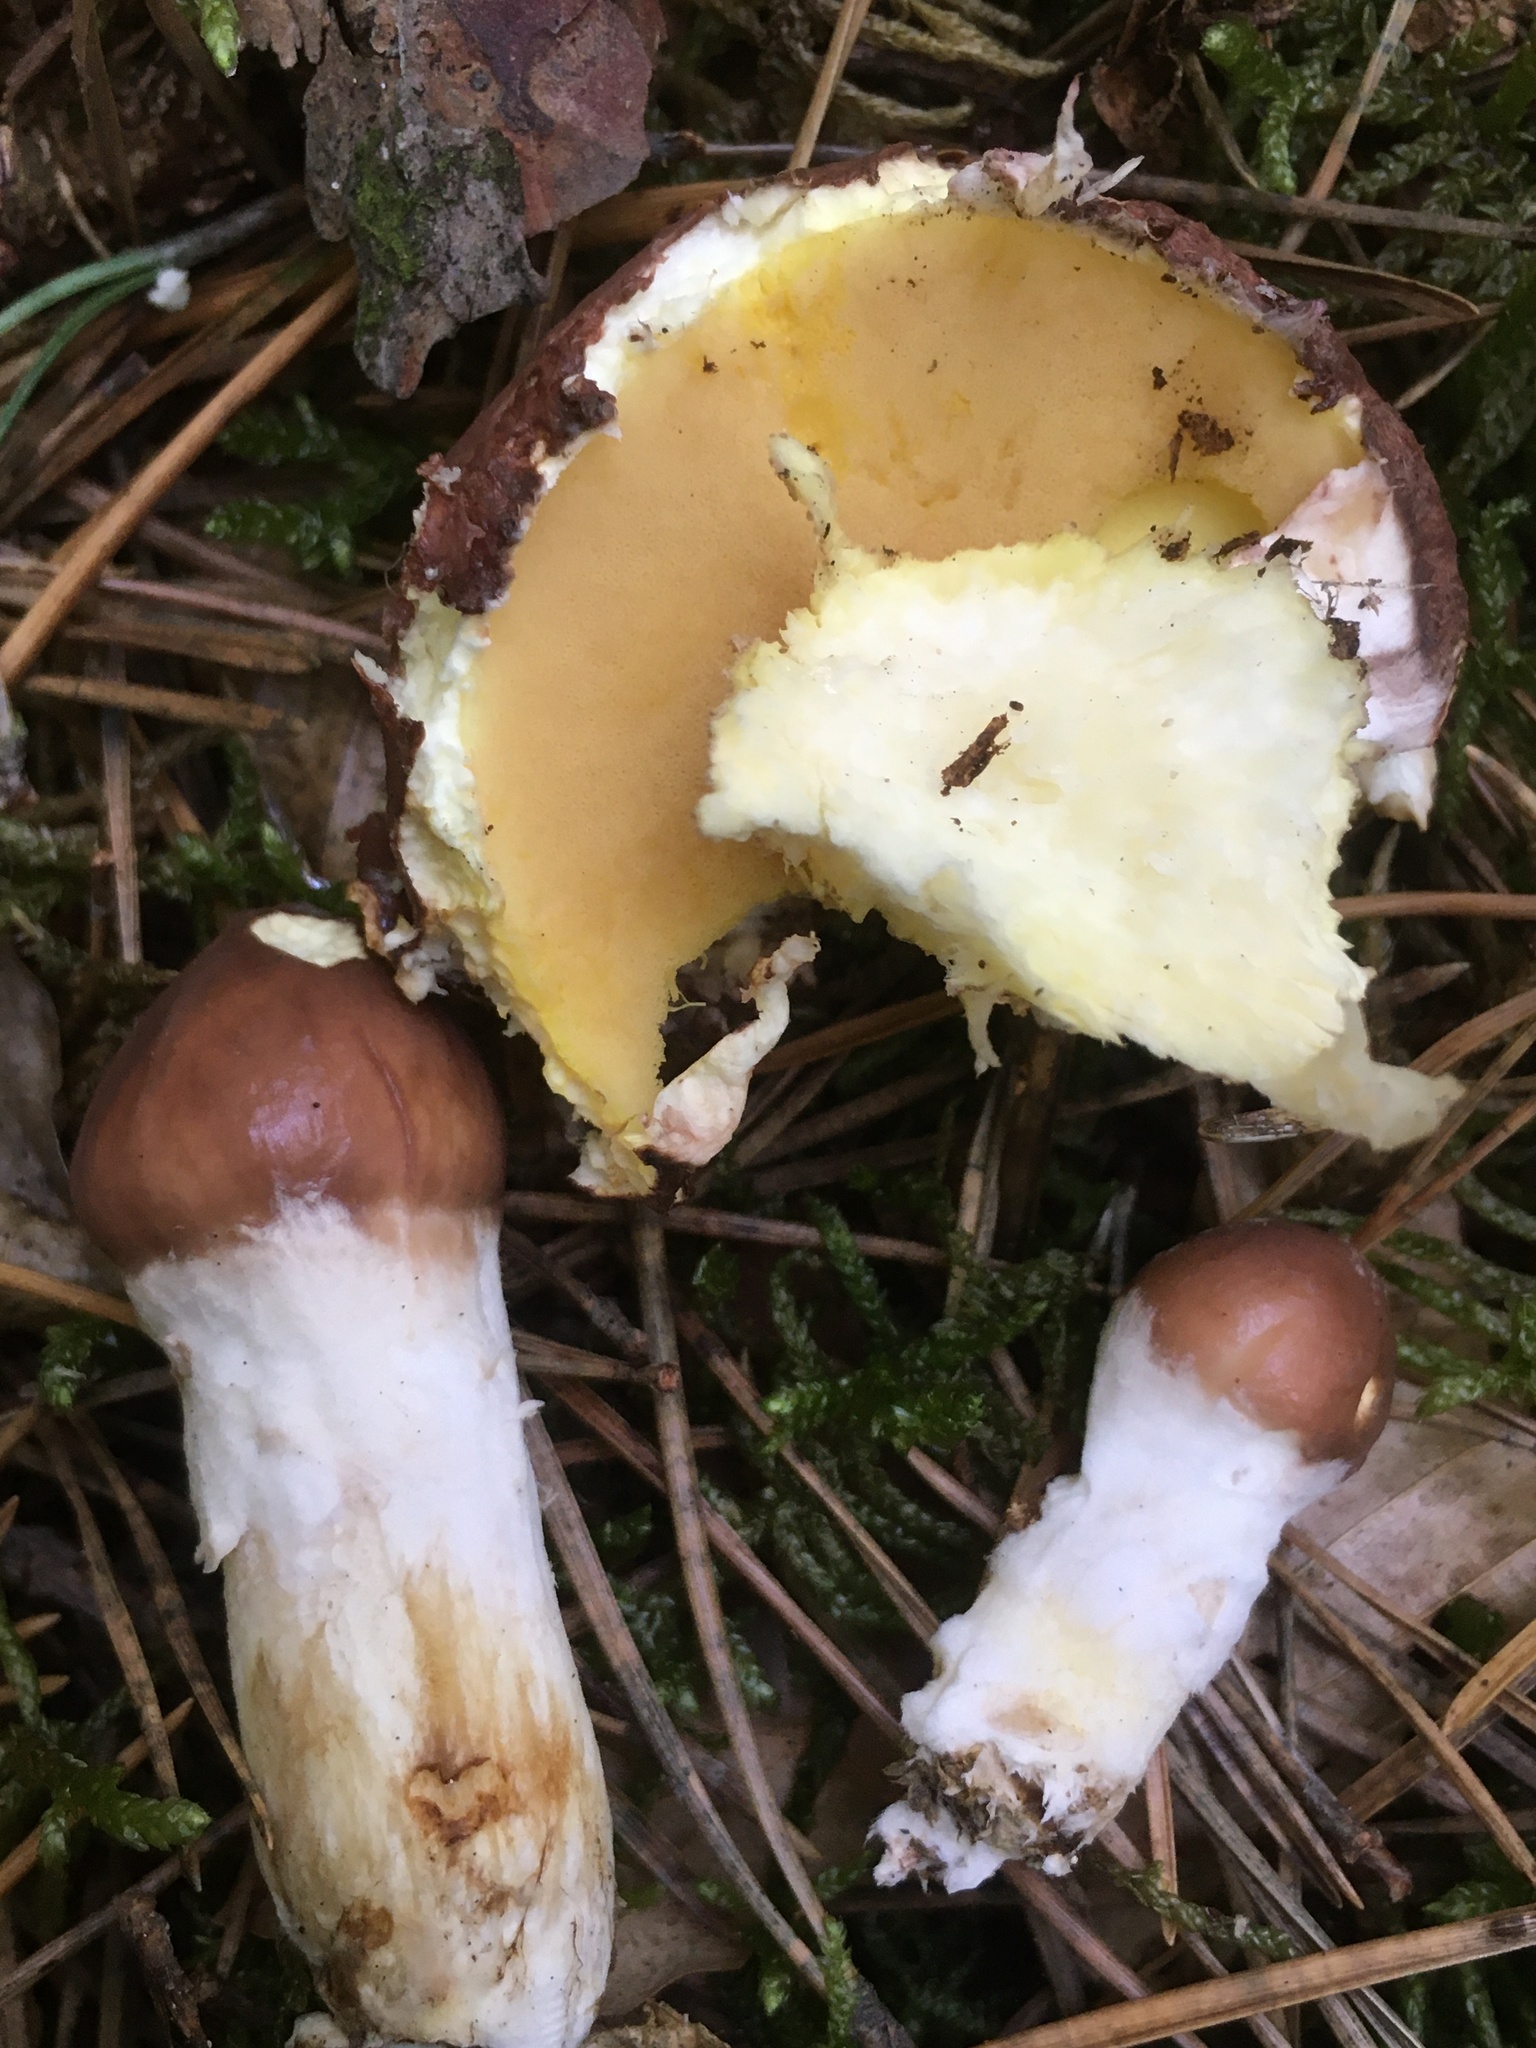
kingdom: Fungi
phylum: Basidiomycota
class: Agaricomycetes
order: Boletales
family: Suillaceae
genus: Suillus
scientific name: Suillus luteus
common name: Slippery jack
